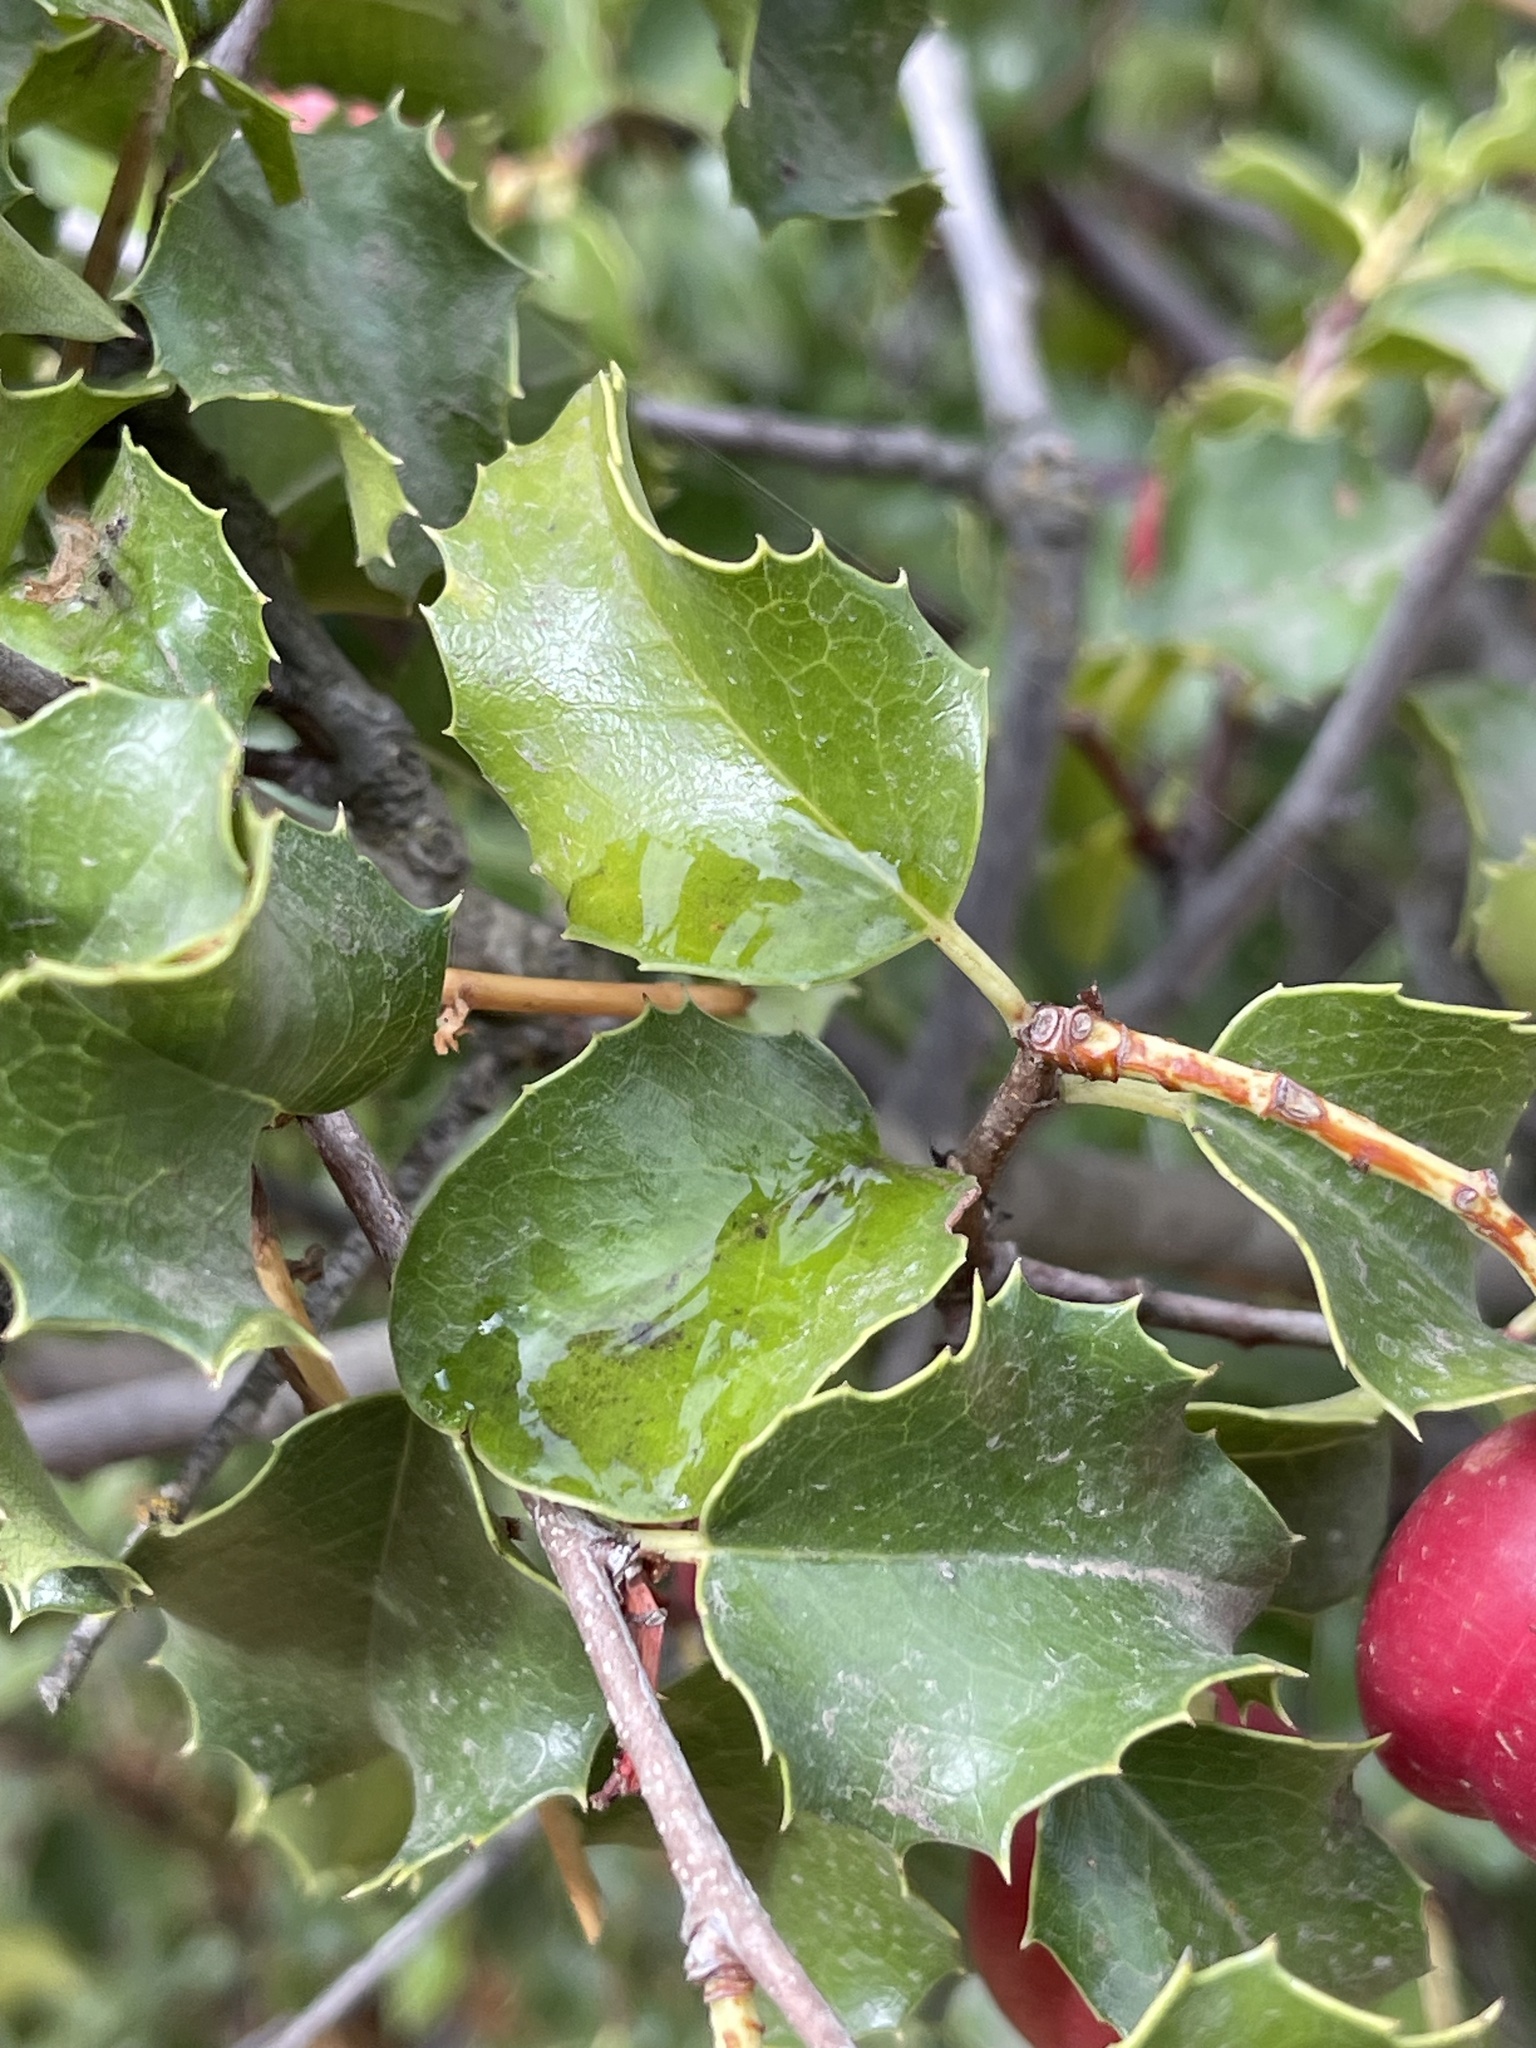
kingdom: Plantae
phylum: Tracheophyta
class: Magnoliopsida
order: Rosales
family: Rosaceae
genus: Prunus
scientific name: Prunus ilicifolia
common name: Hollyleaf cherry
